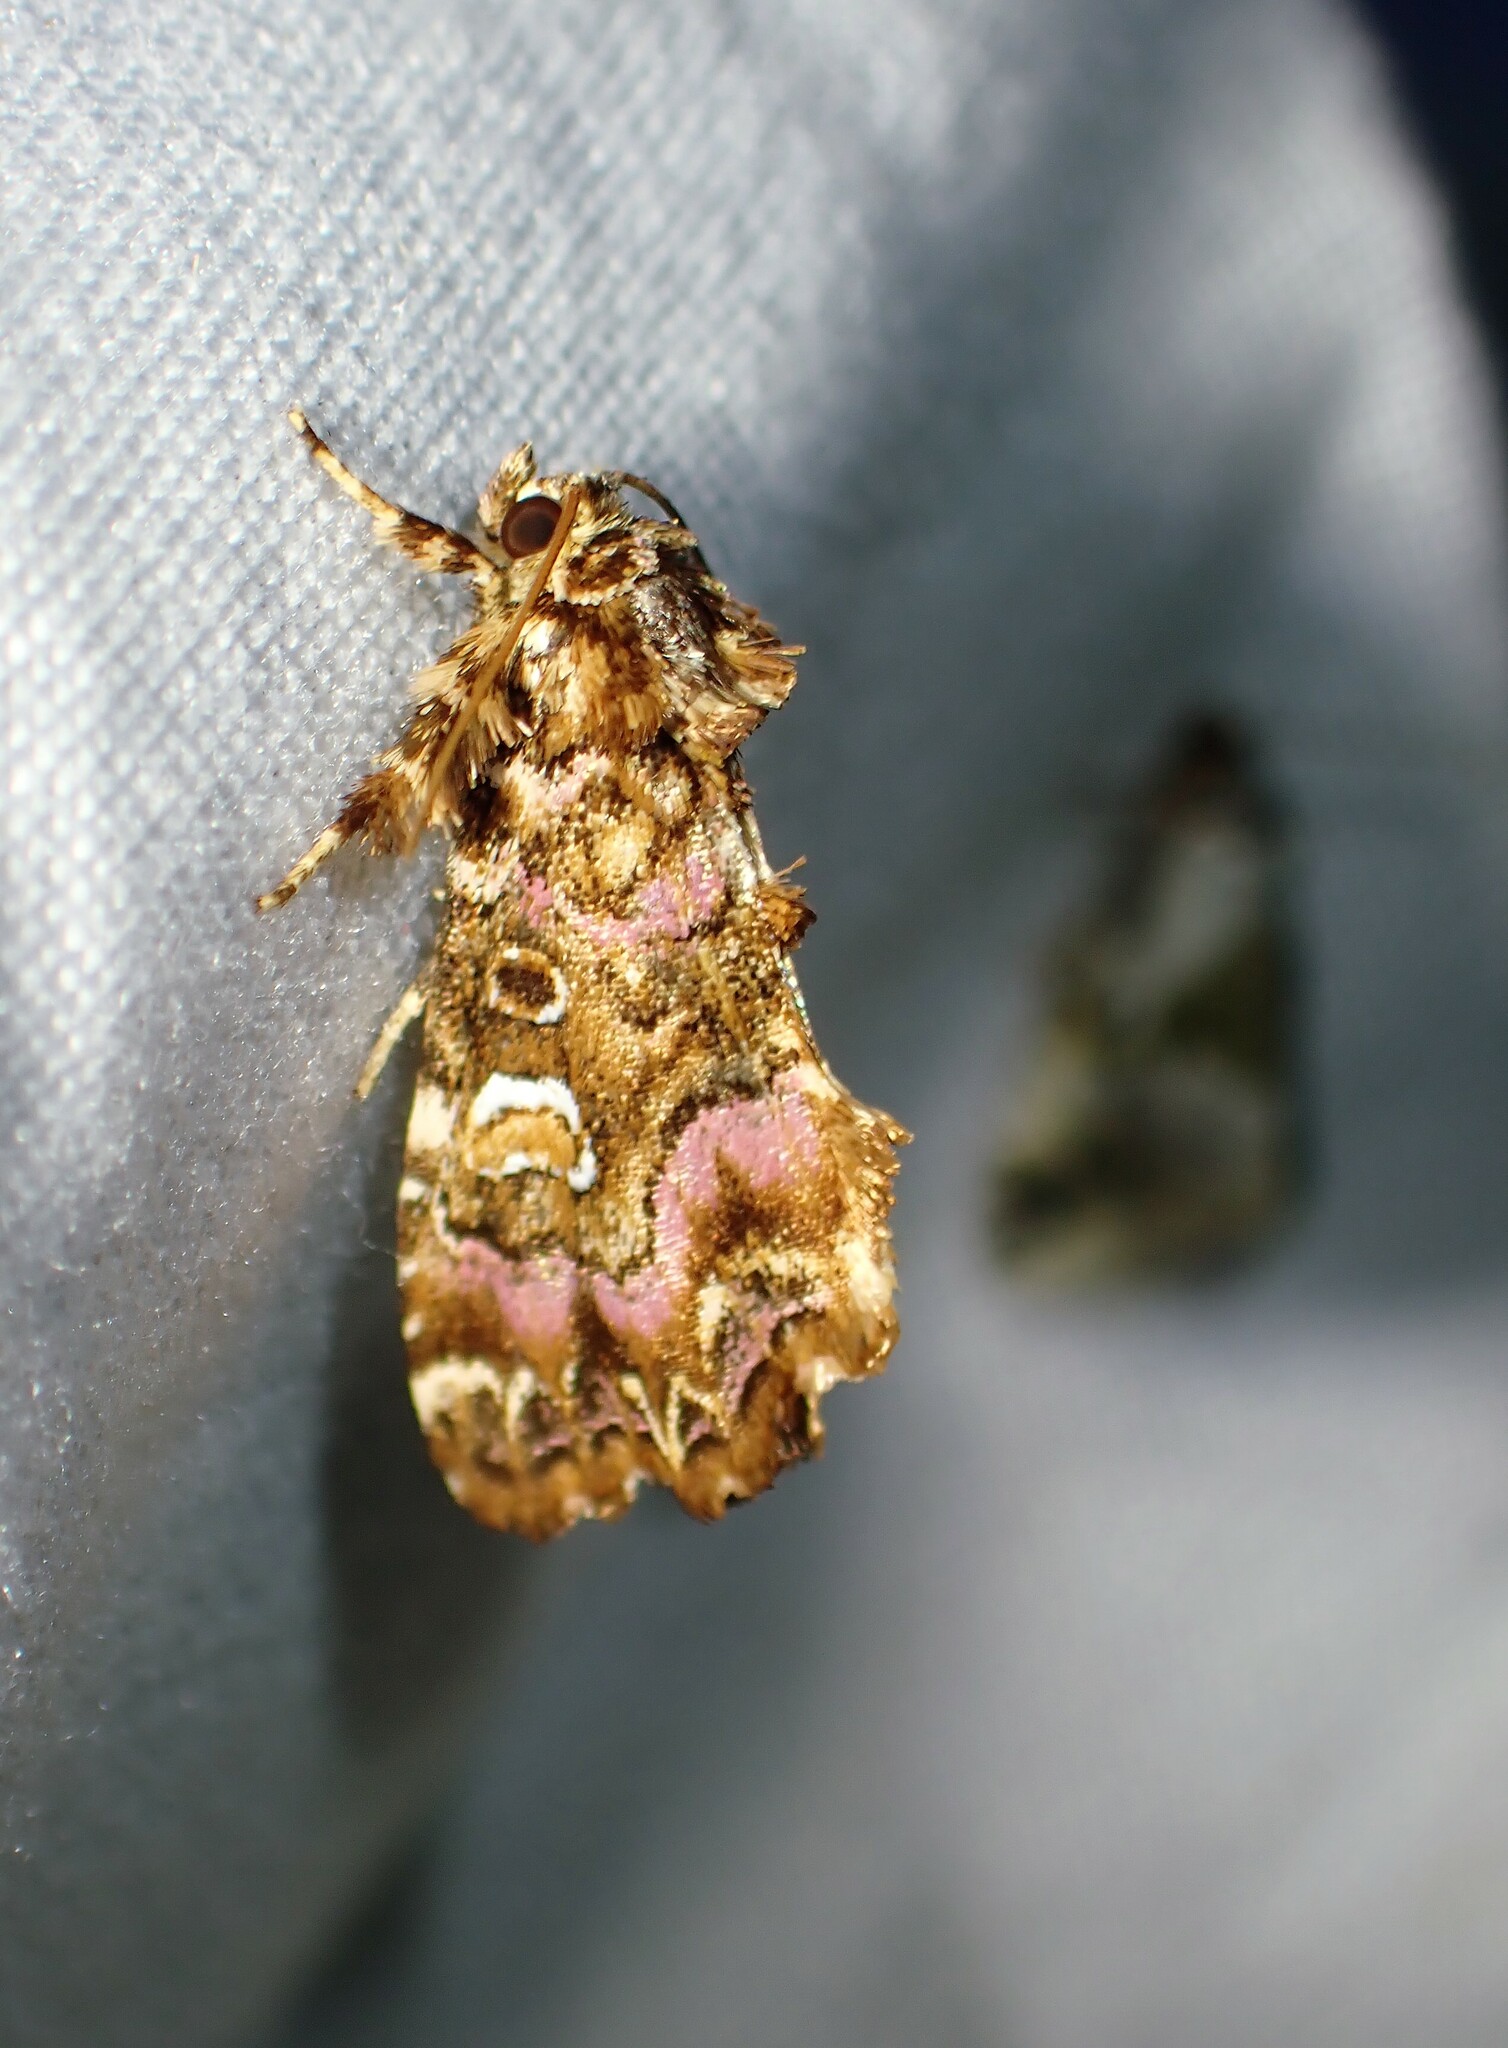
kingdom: Animalia
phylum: Arthropoda
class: Insecta
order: Lepidoptera
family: Noctuidae
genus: Callopistria
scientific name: Callopistria mollissima
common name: Pink-shaded fern moth
